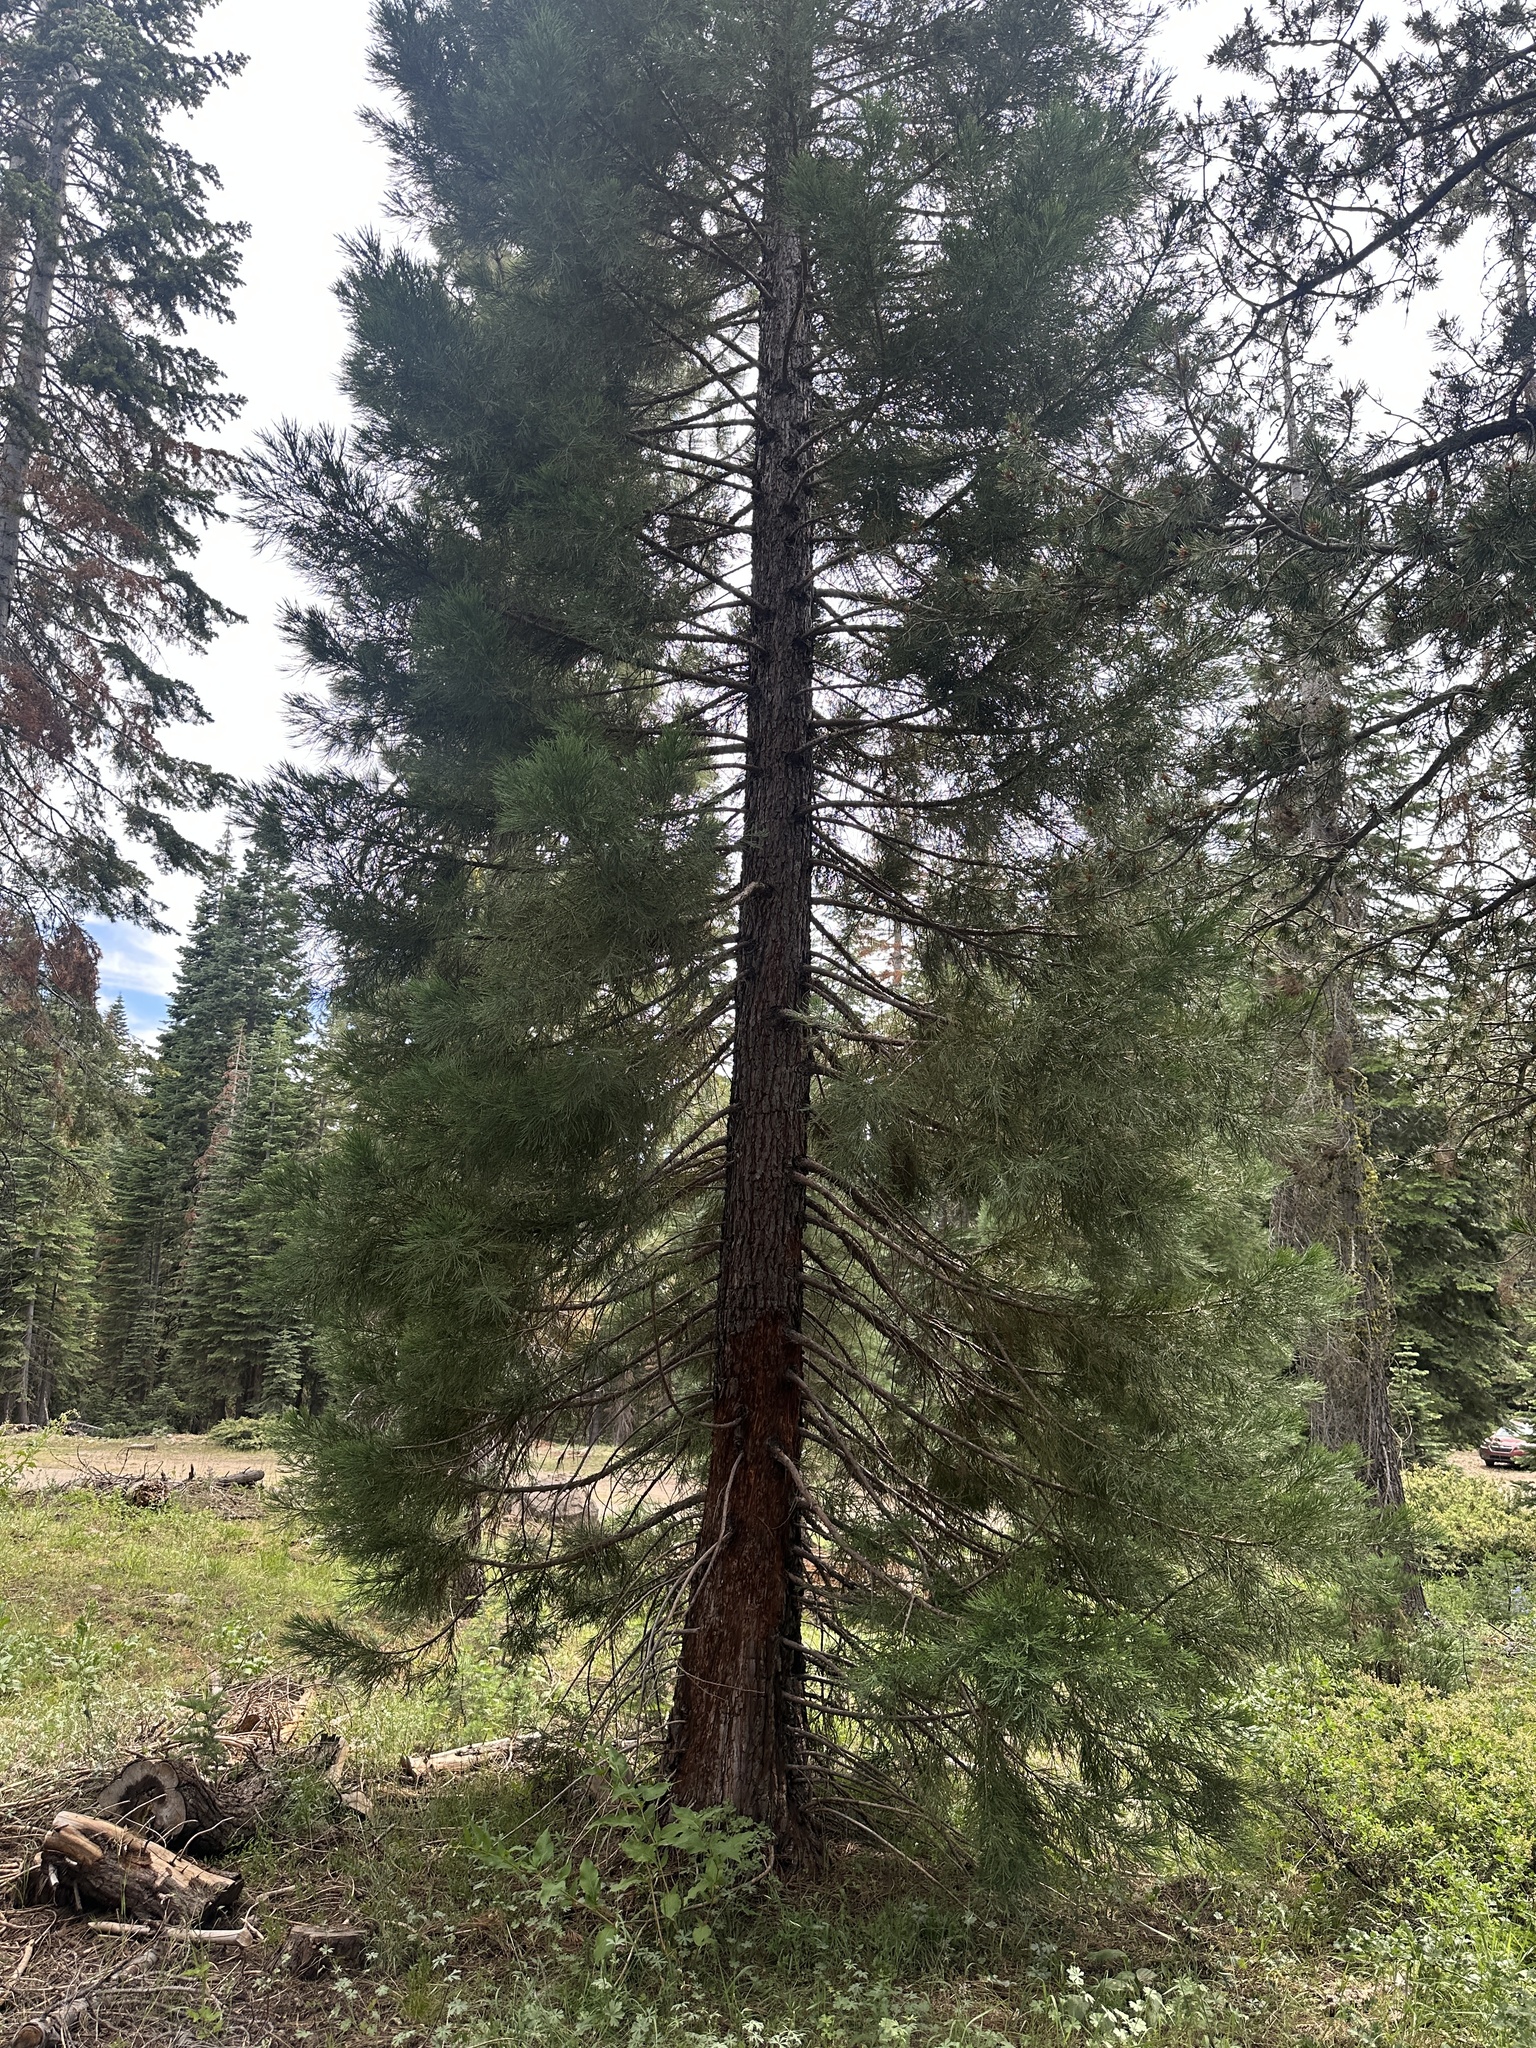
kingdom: Plantae
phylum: Tracheophyta
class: Pinopsida
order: Pinales
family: Cupressaceae
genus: Sequoiadendron
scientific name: Sequoiadendron giganteum
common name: Wellingtonia
